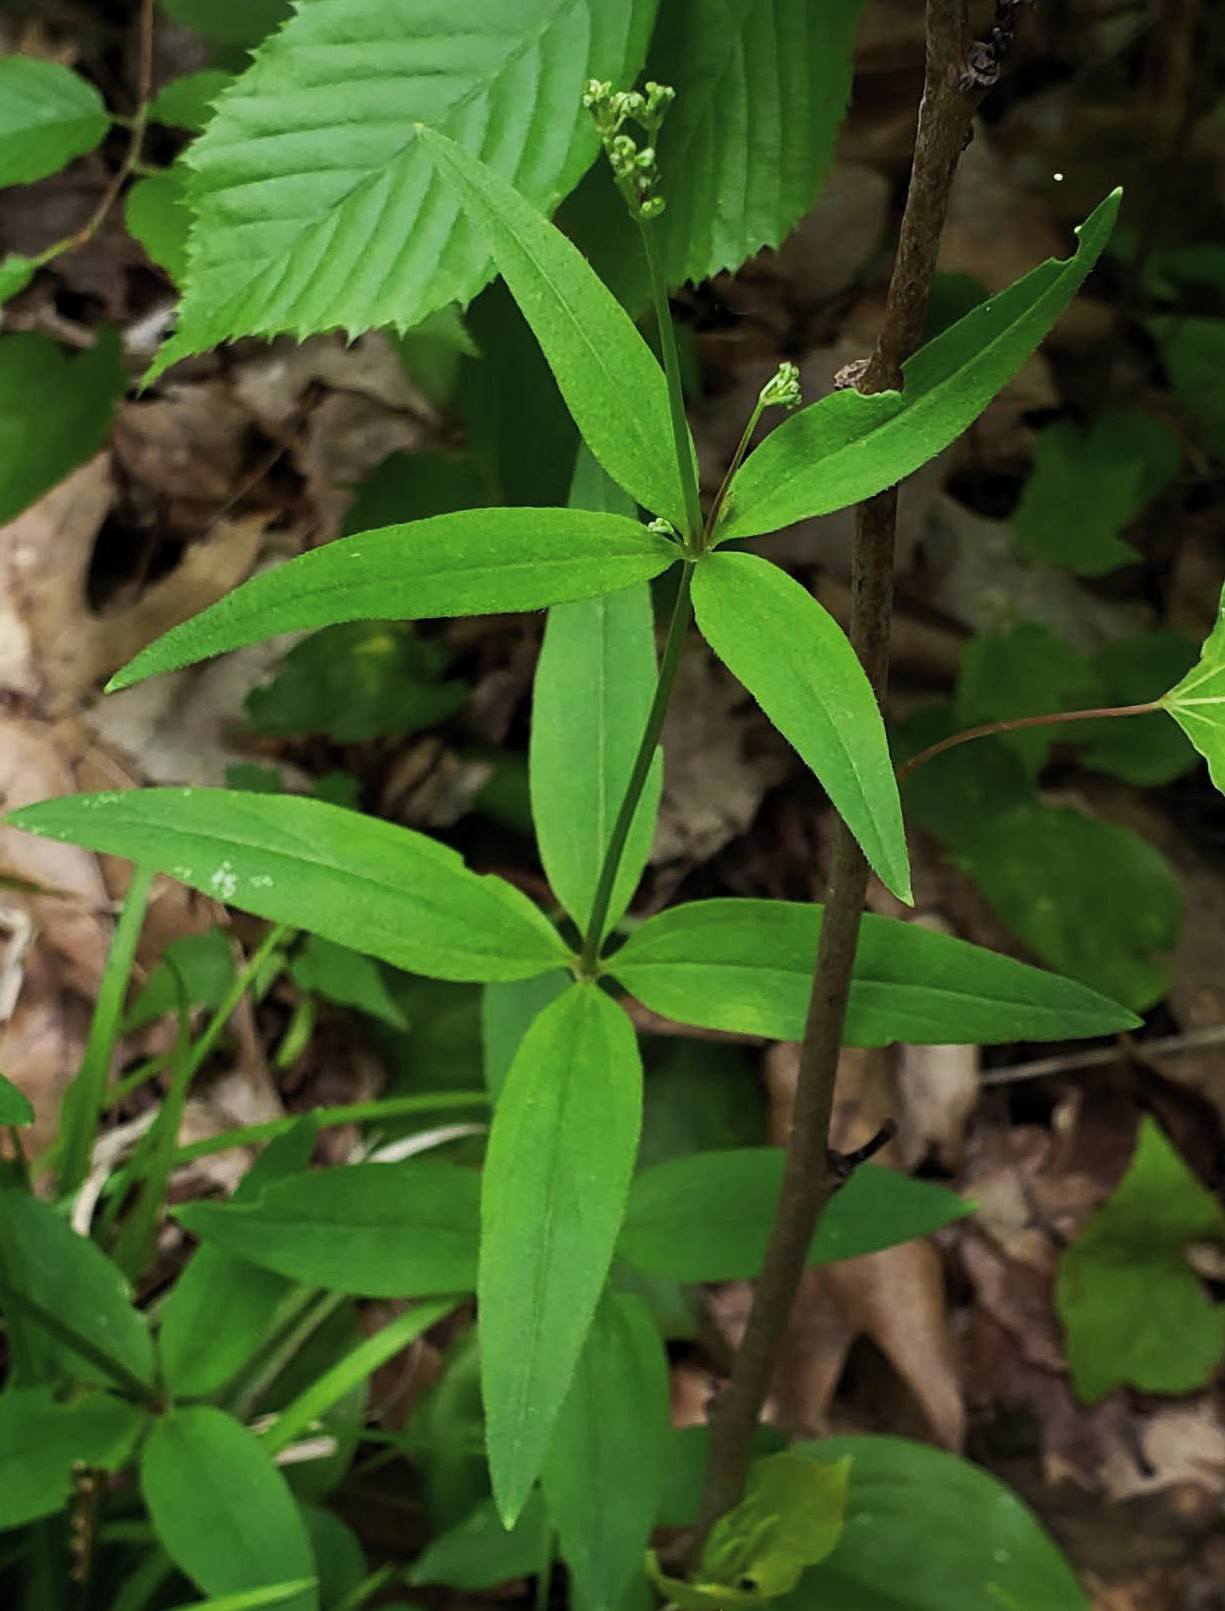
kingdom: Plantae
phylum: Tracheophyta
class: Magnoliopsida
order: Gentianales
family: Rubiaceae
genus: Galium
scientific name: Galium lanceolatum
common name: Lance-leaved wild licorice
